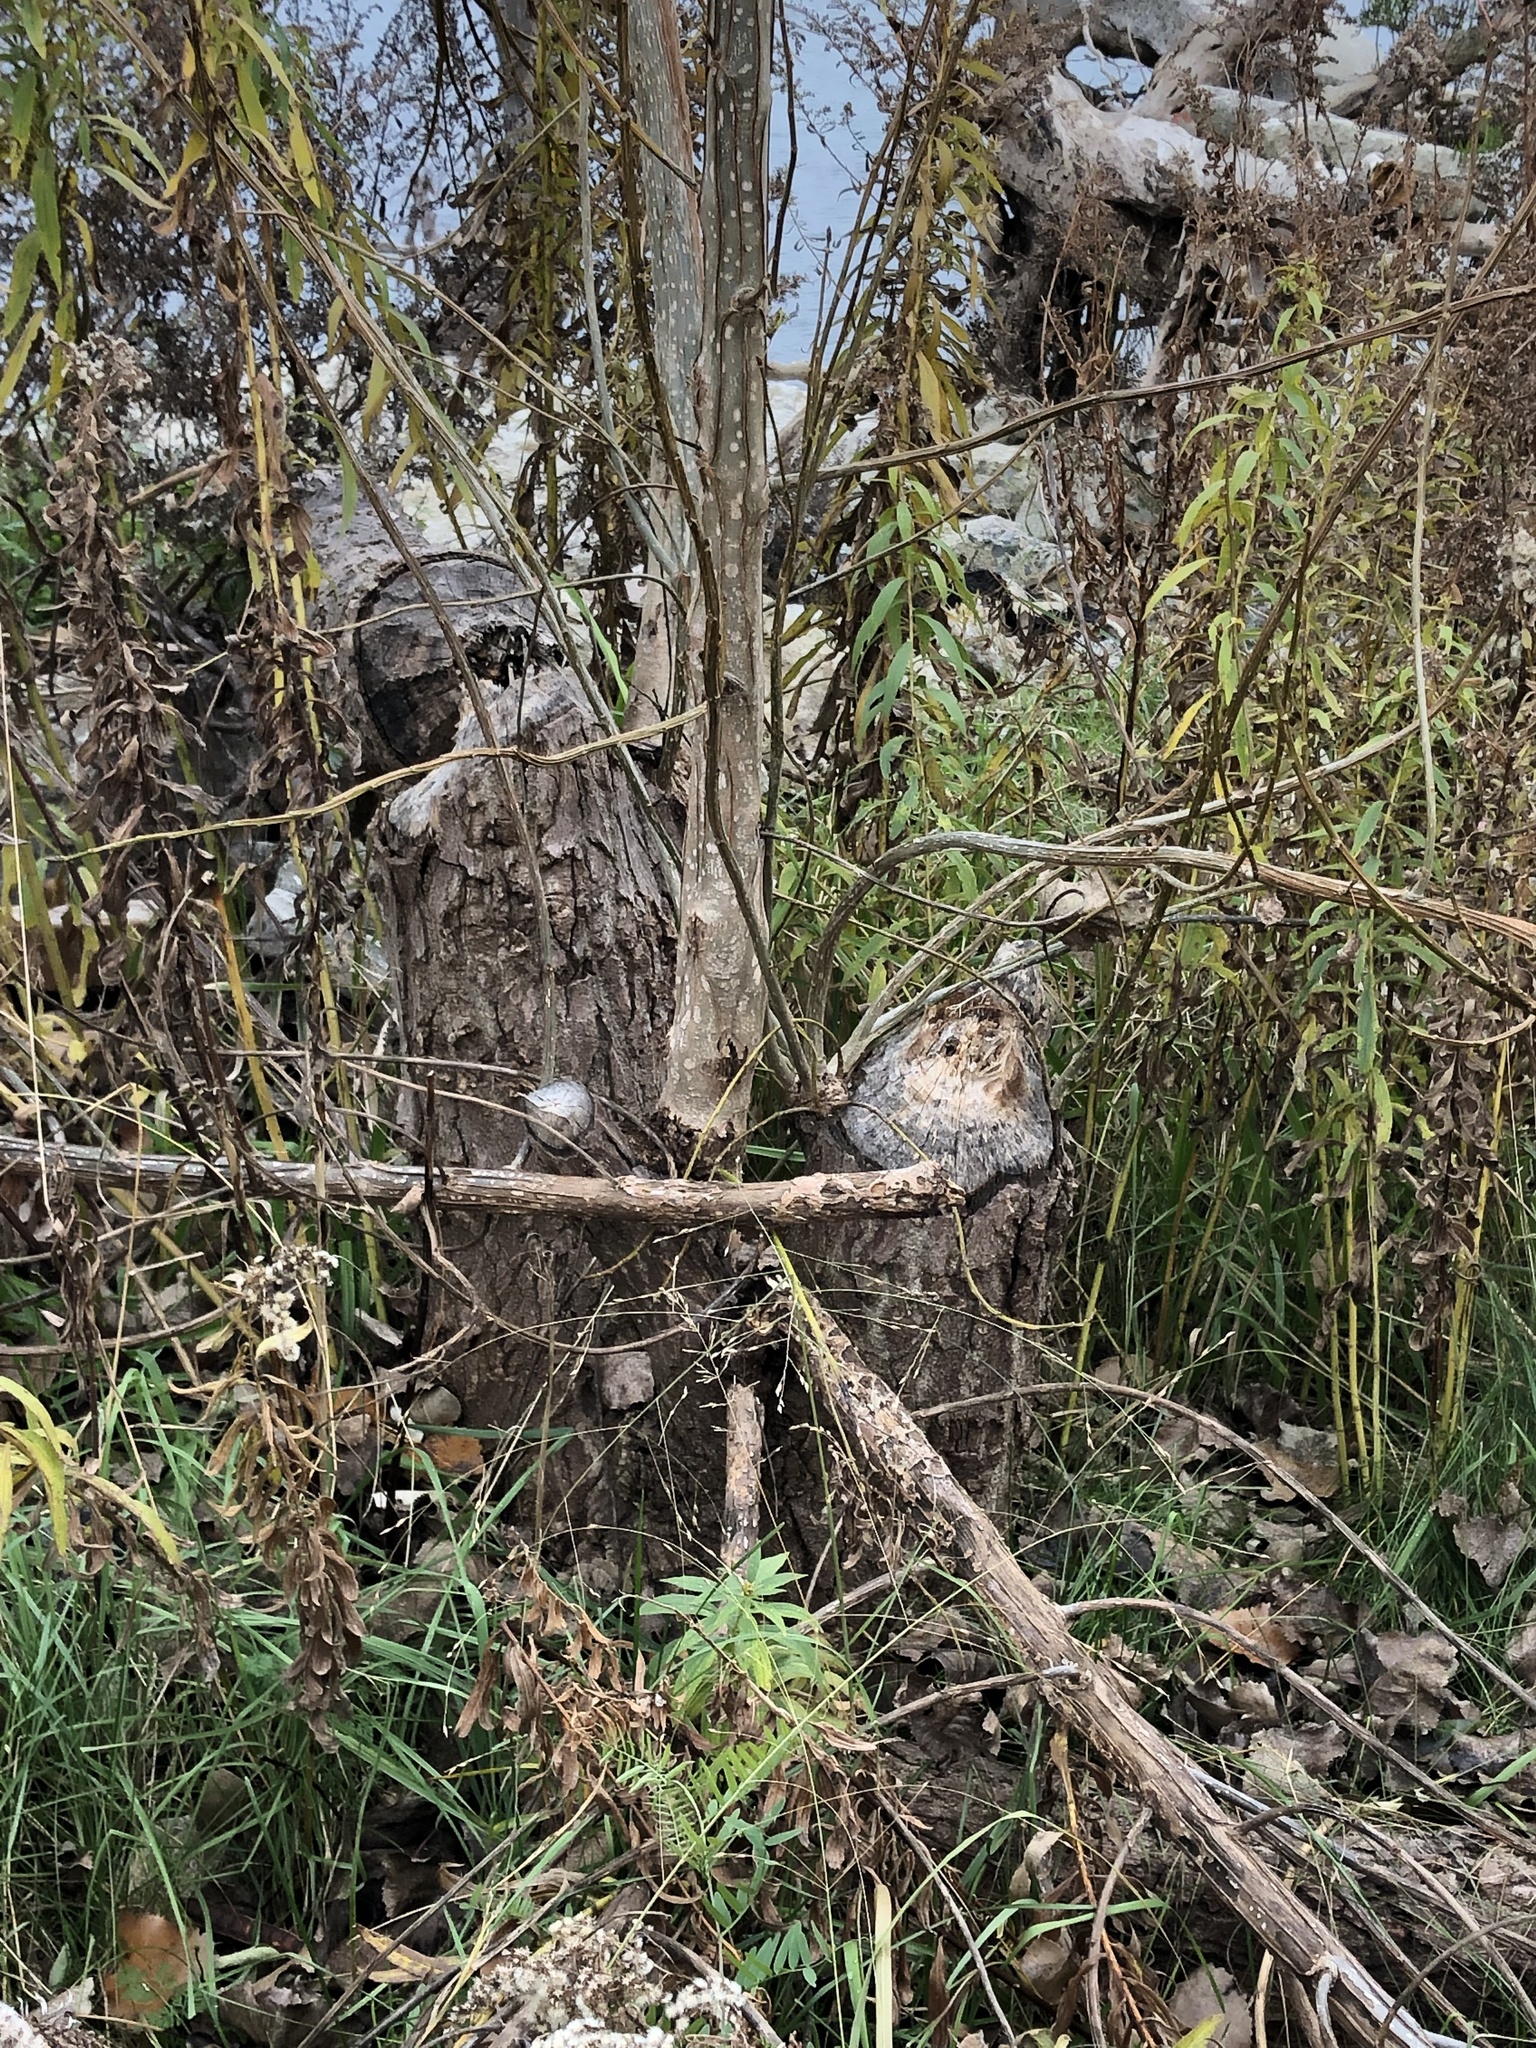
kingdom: Animalia
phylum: Chordata
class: Mammalia
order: Rodentia
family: Castoridae
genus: Castor
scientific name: Castor canadensis
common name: American beaver
